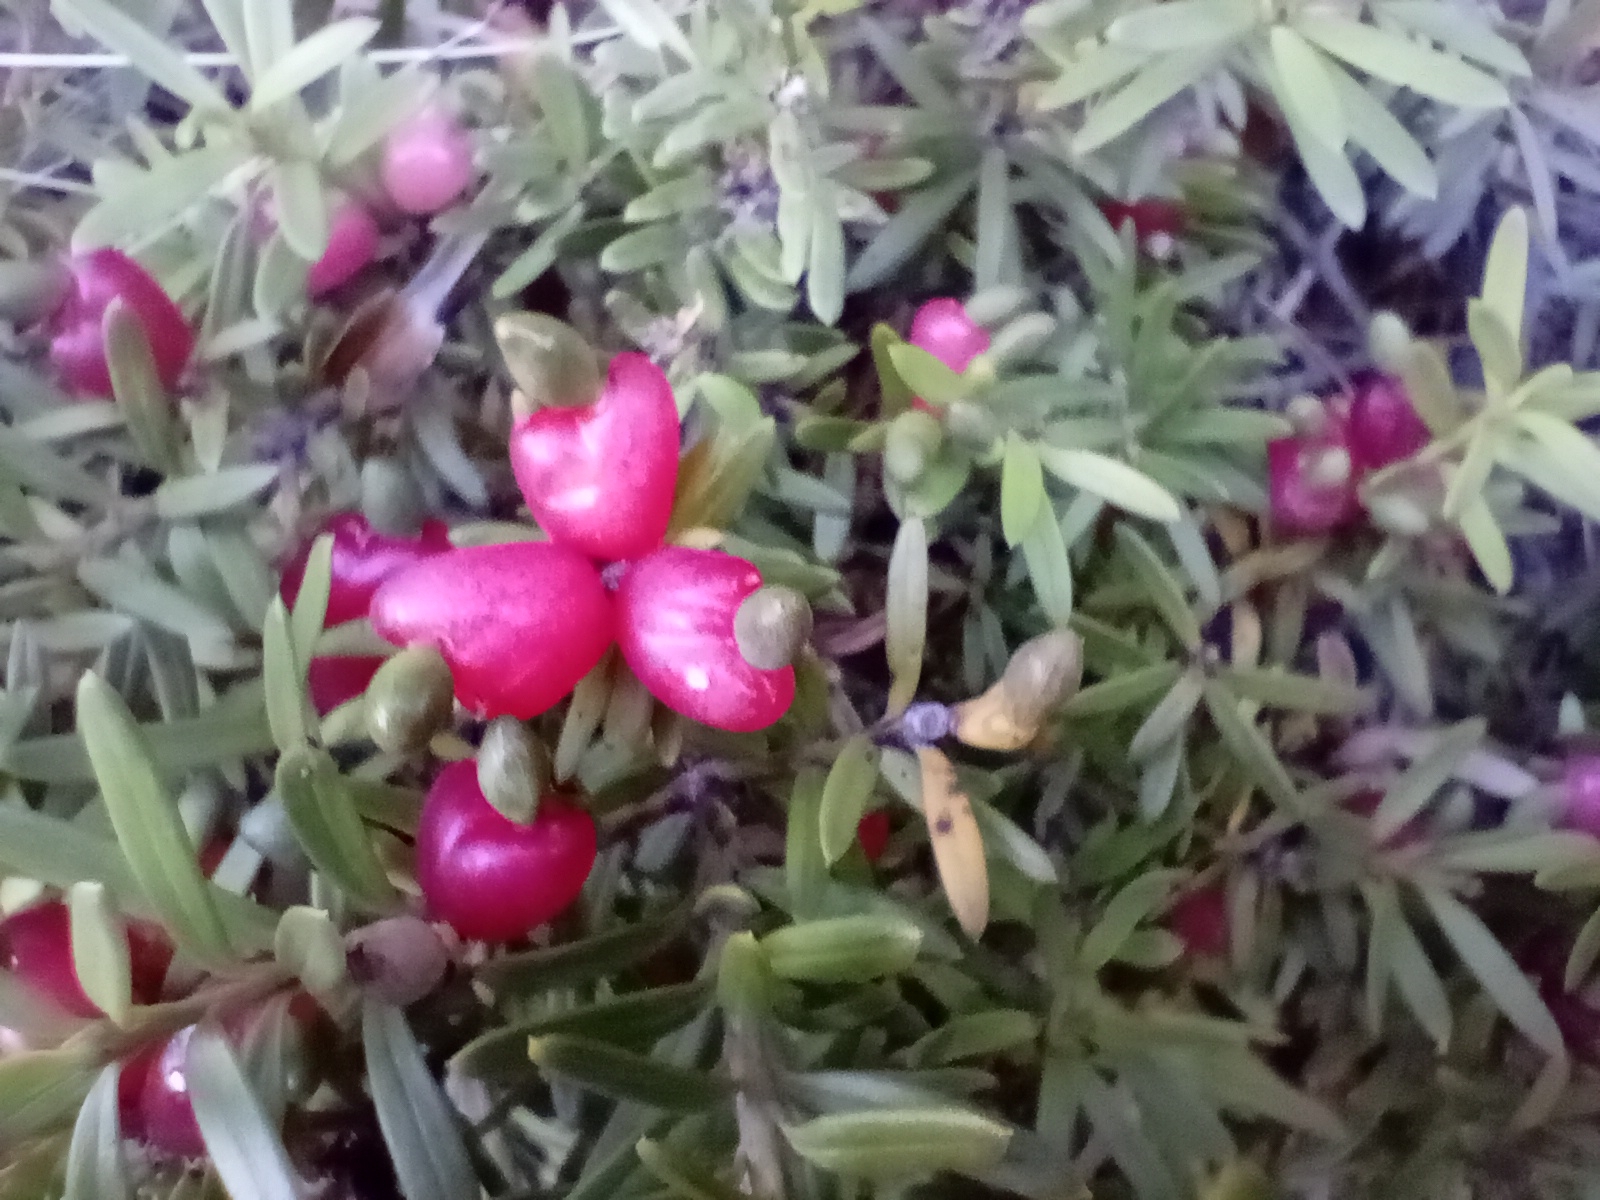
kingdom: Plantae
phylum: Tracheophyta
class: Pinopsida
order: Pinales
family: Podocarpaceae
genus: Podocarpus
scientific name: Podocarpus nivalis
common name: Alpine totara
